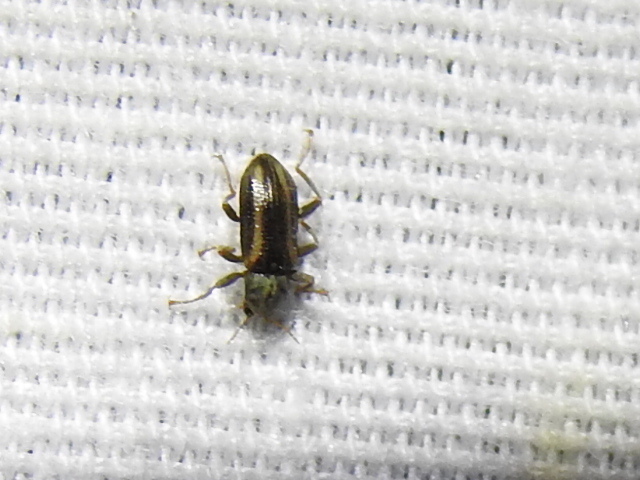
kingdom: Animalia
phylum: Arthropoda
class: Insecta
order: Coleoptera
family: Elmidae
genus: Stenelmis
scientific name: Stenelmis cheryl
